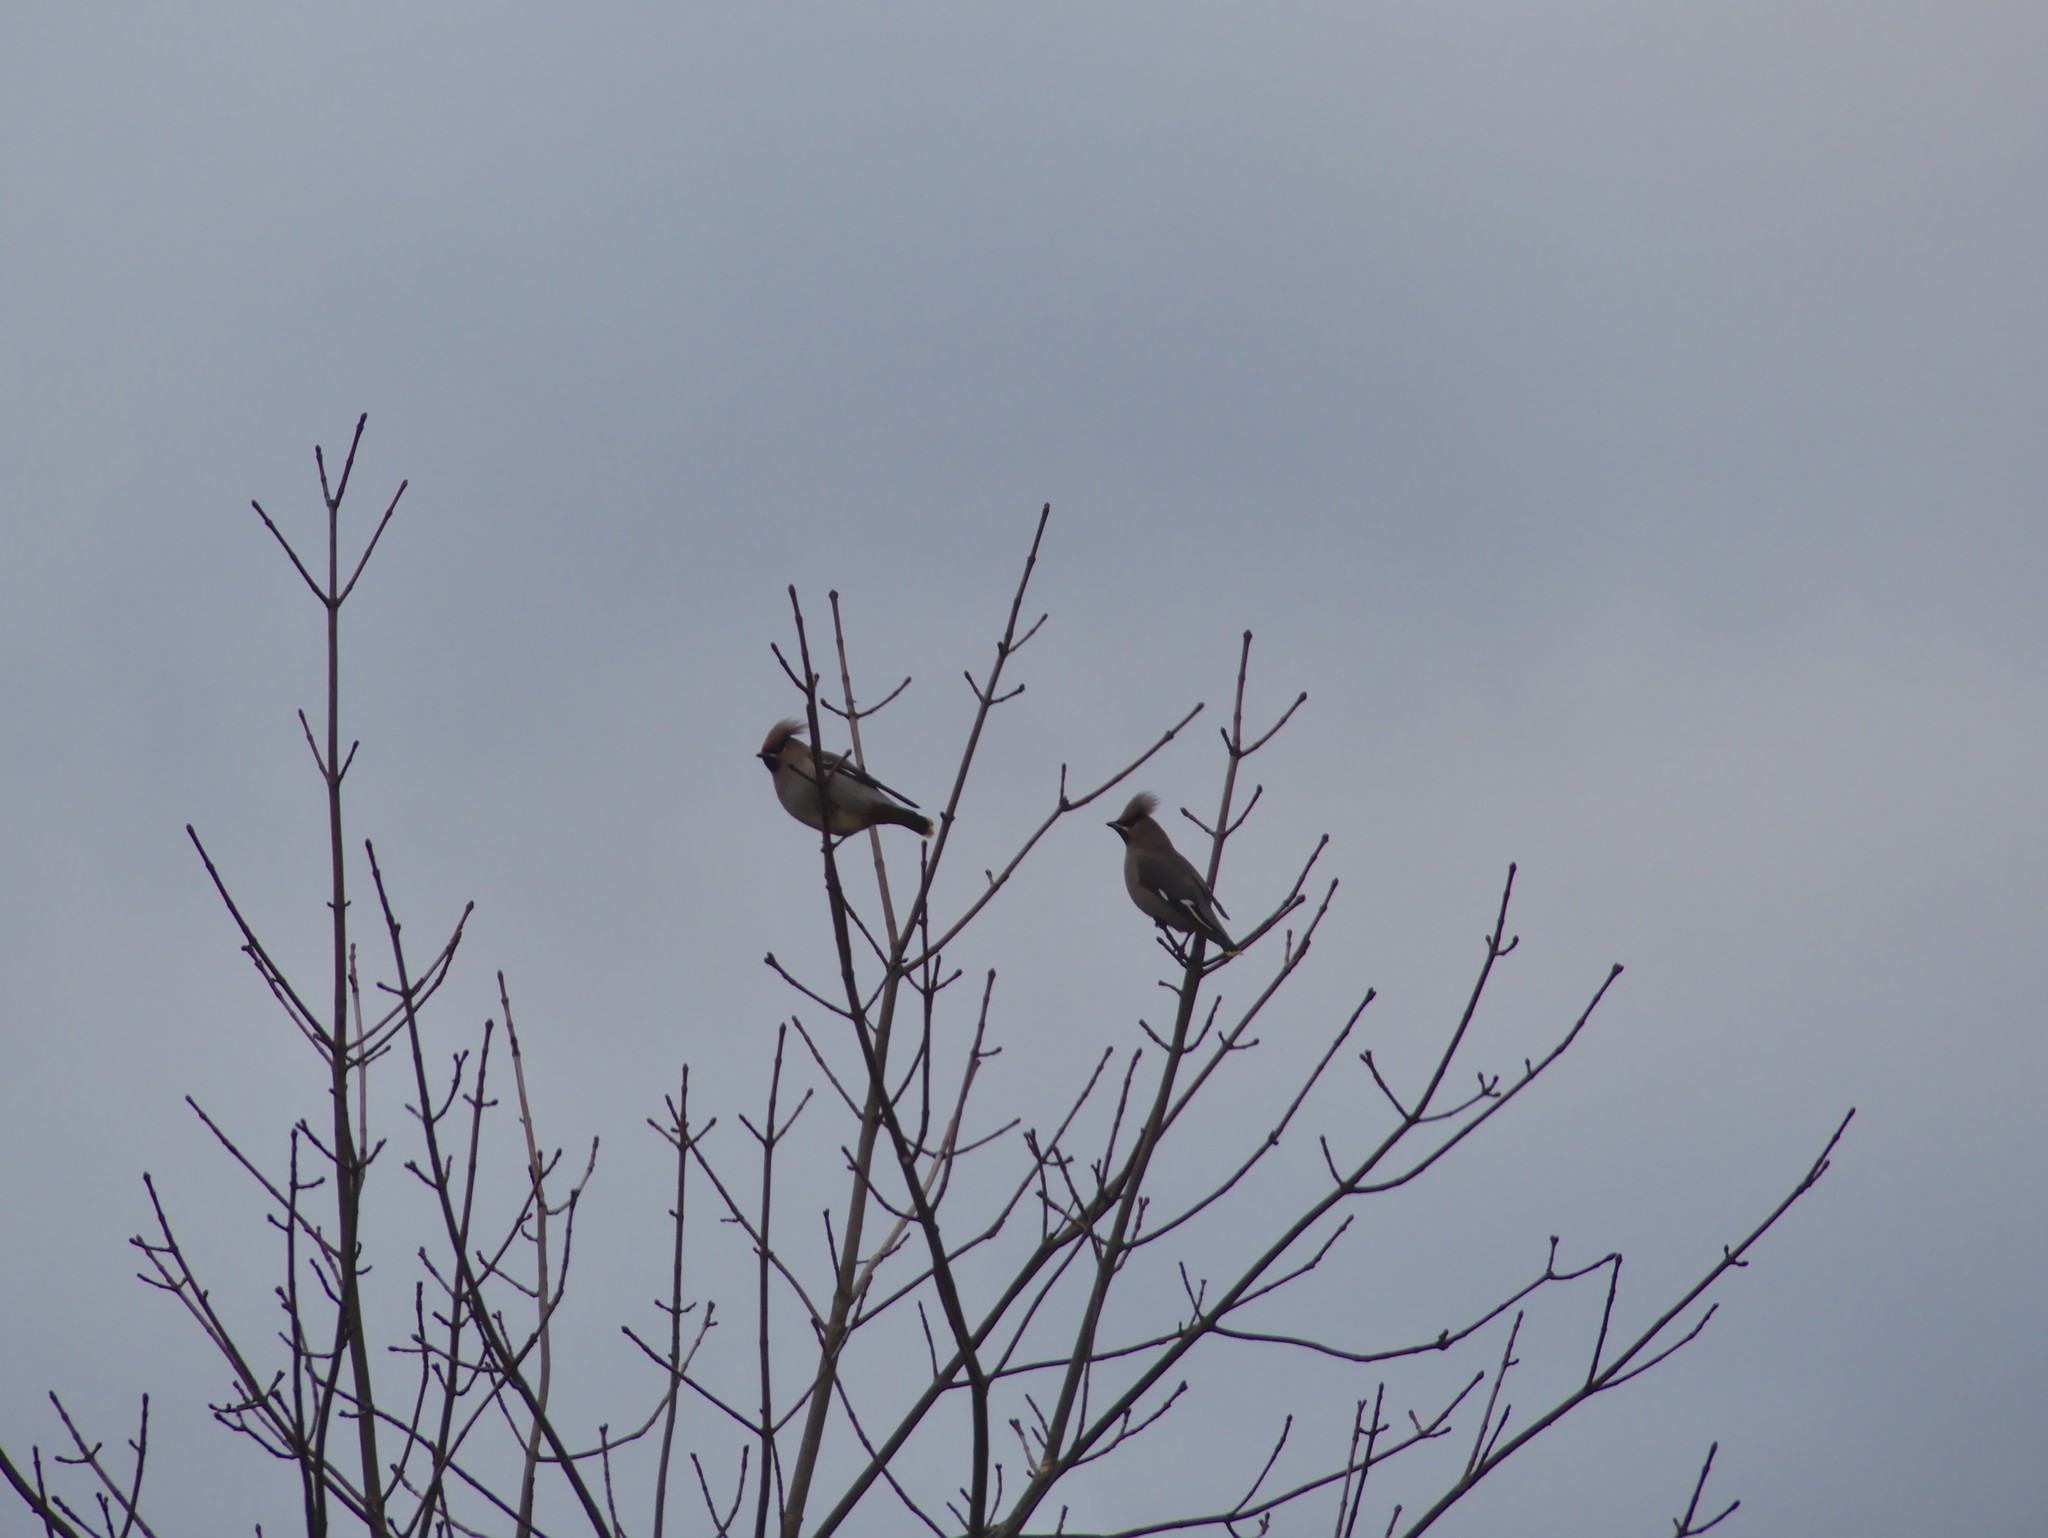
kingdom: Animalia
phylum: Chordata
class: Aves
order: Passeriformes
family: Bombycillidae
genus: Bombycilla
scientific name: Bombycilla garrulus
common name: Bohemian waxwing
